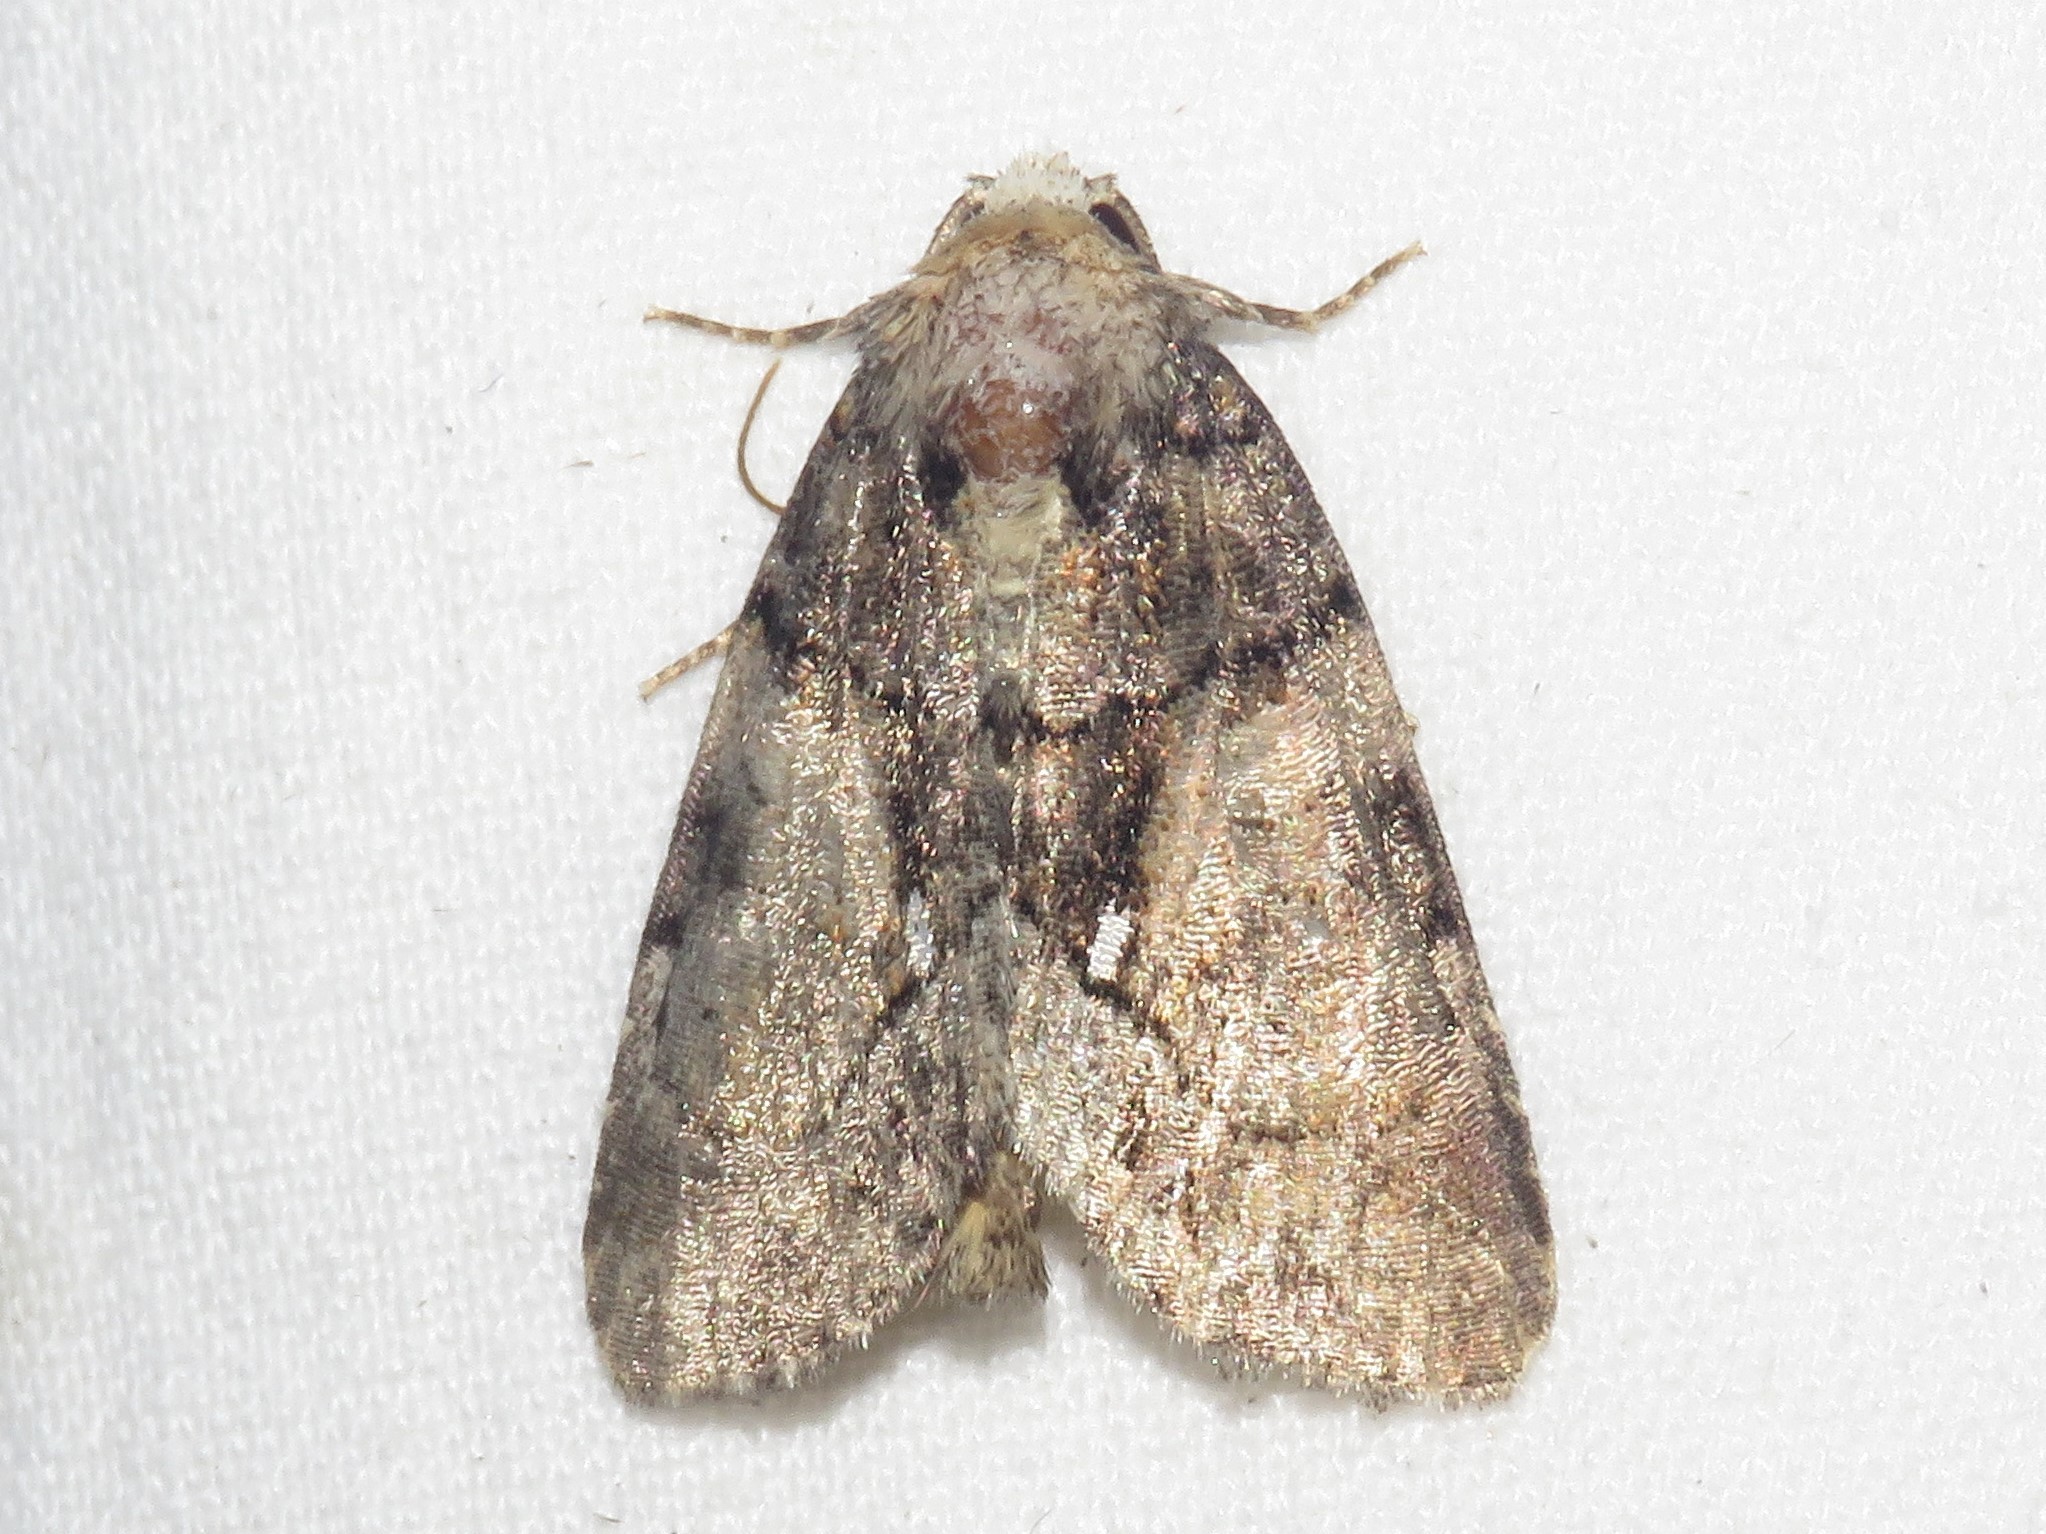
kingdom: Animalia
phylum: Arthropoda
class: Insecta
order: Lepidoptera
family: Noctuidae
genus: Chytonix
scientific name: Chytonix palliatricula
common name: Cloaked marvel
